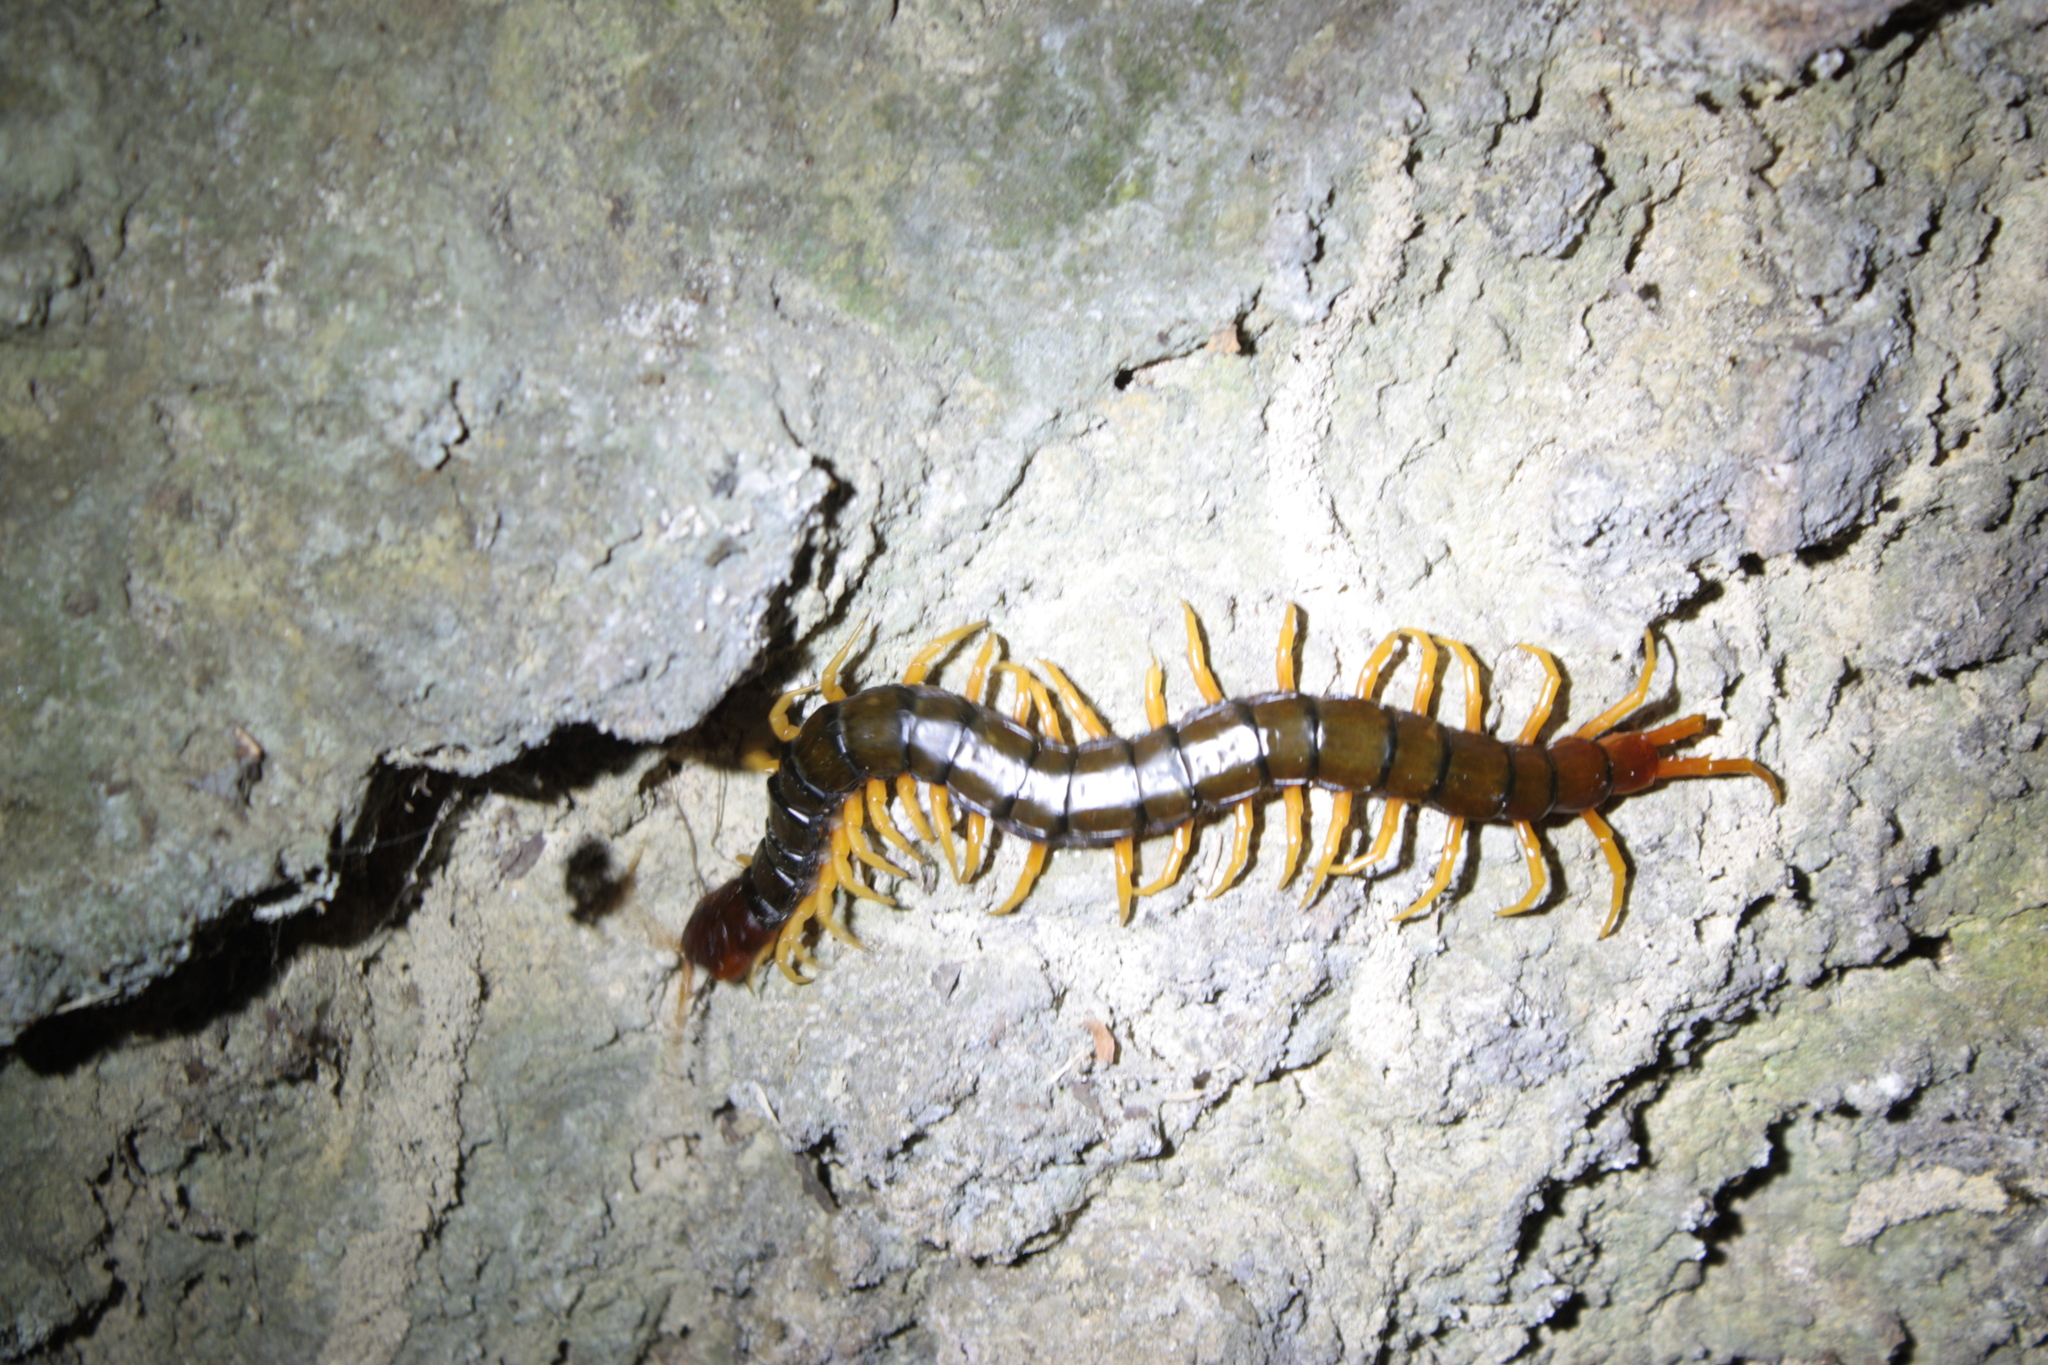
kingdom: Animalia
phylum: Arthropoda
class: Chilopoda
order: Scolopendromorpha
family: Scolopendridae
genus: Scolopendra
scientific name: Scolopendra mutilans
